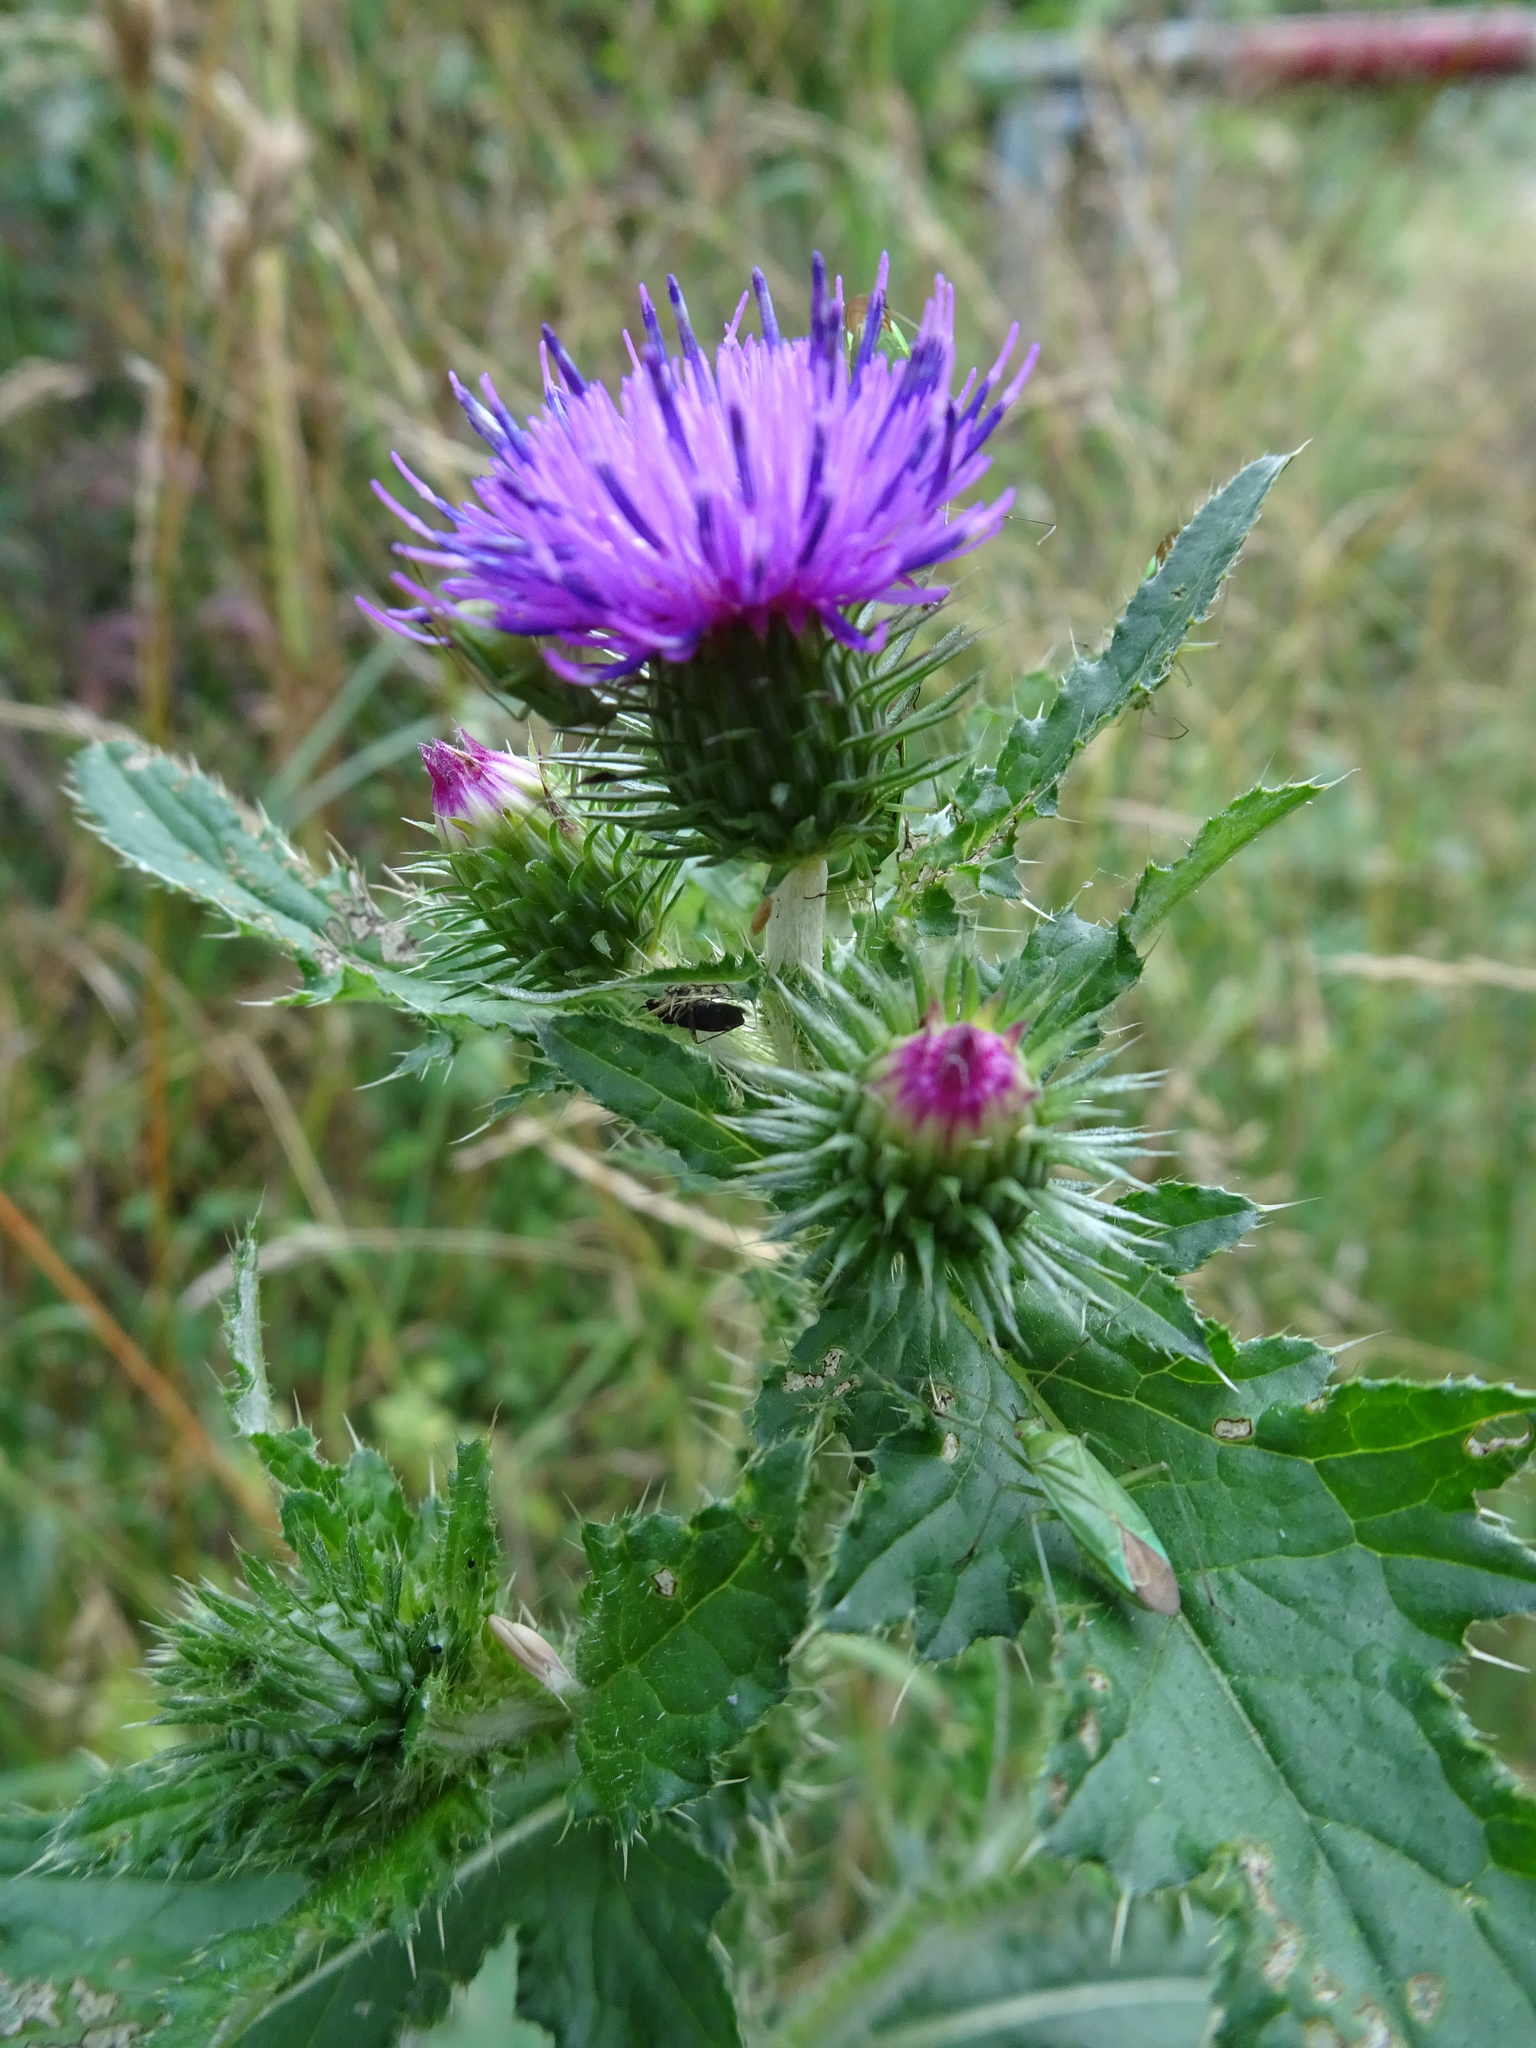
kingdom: Plantae
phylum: Tracheophyta
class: Magnoliopsida
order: Asterales
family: Asteraceae
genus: Carduus
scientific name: Carduus crispus
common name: Welted thistle
